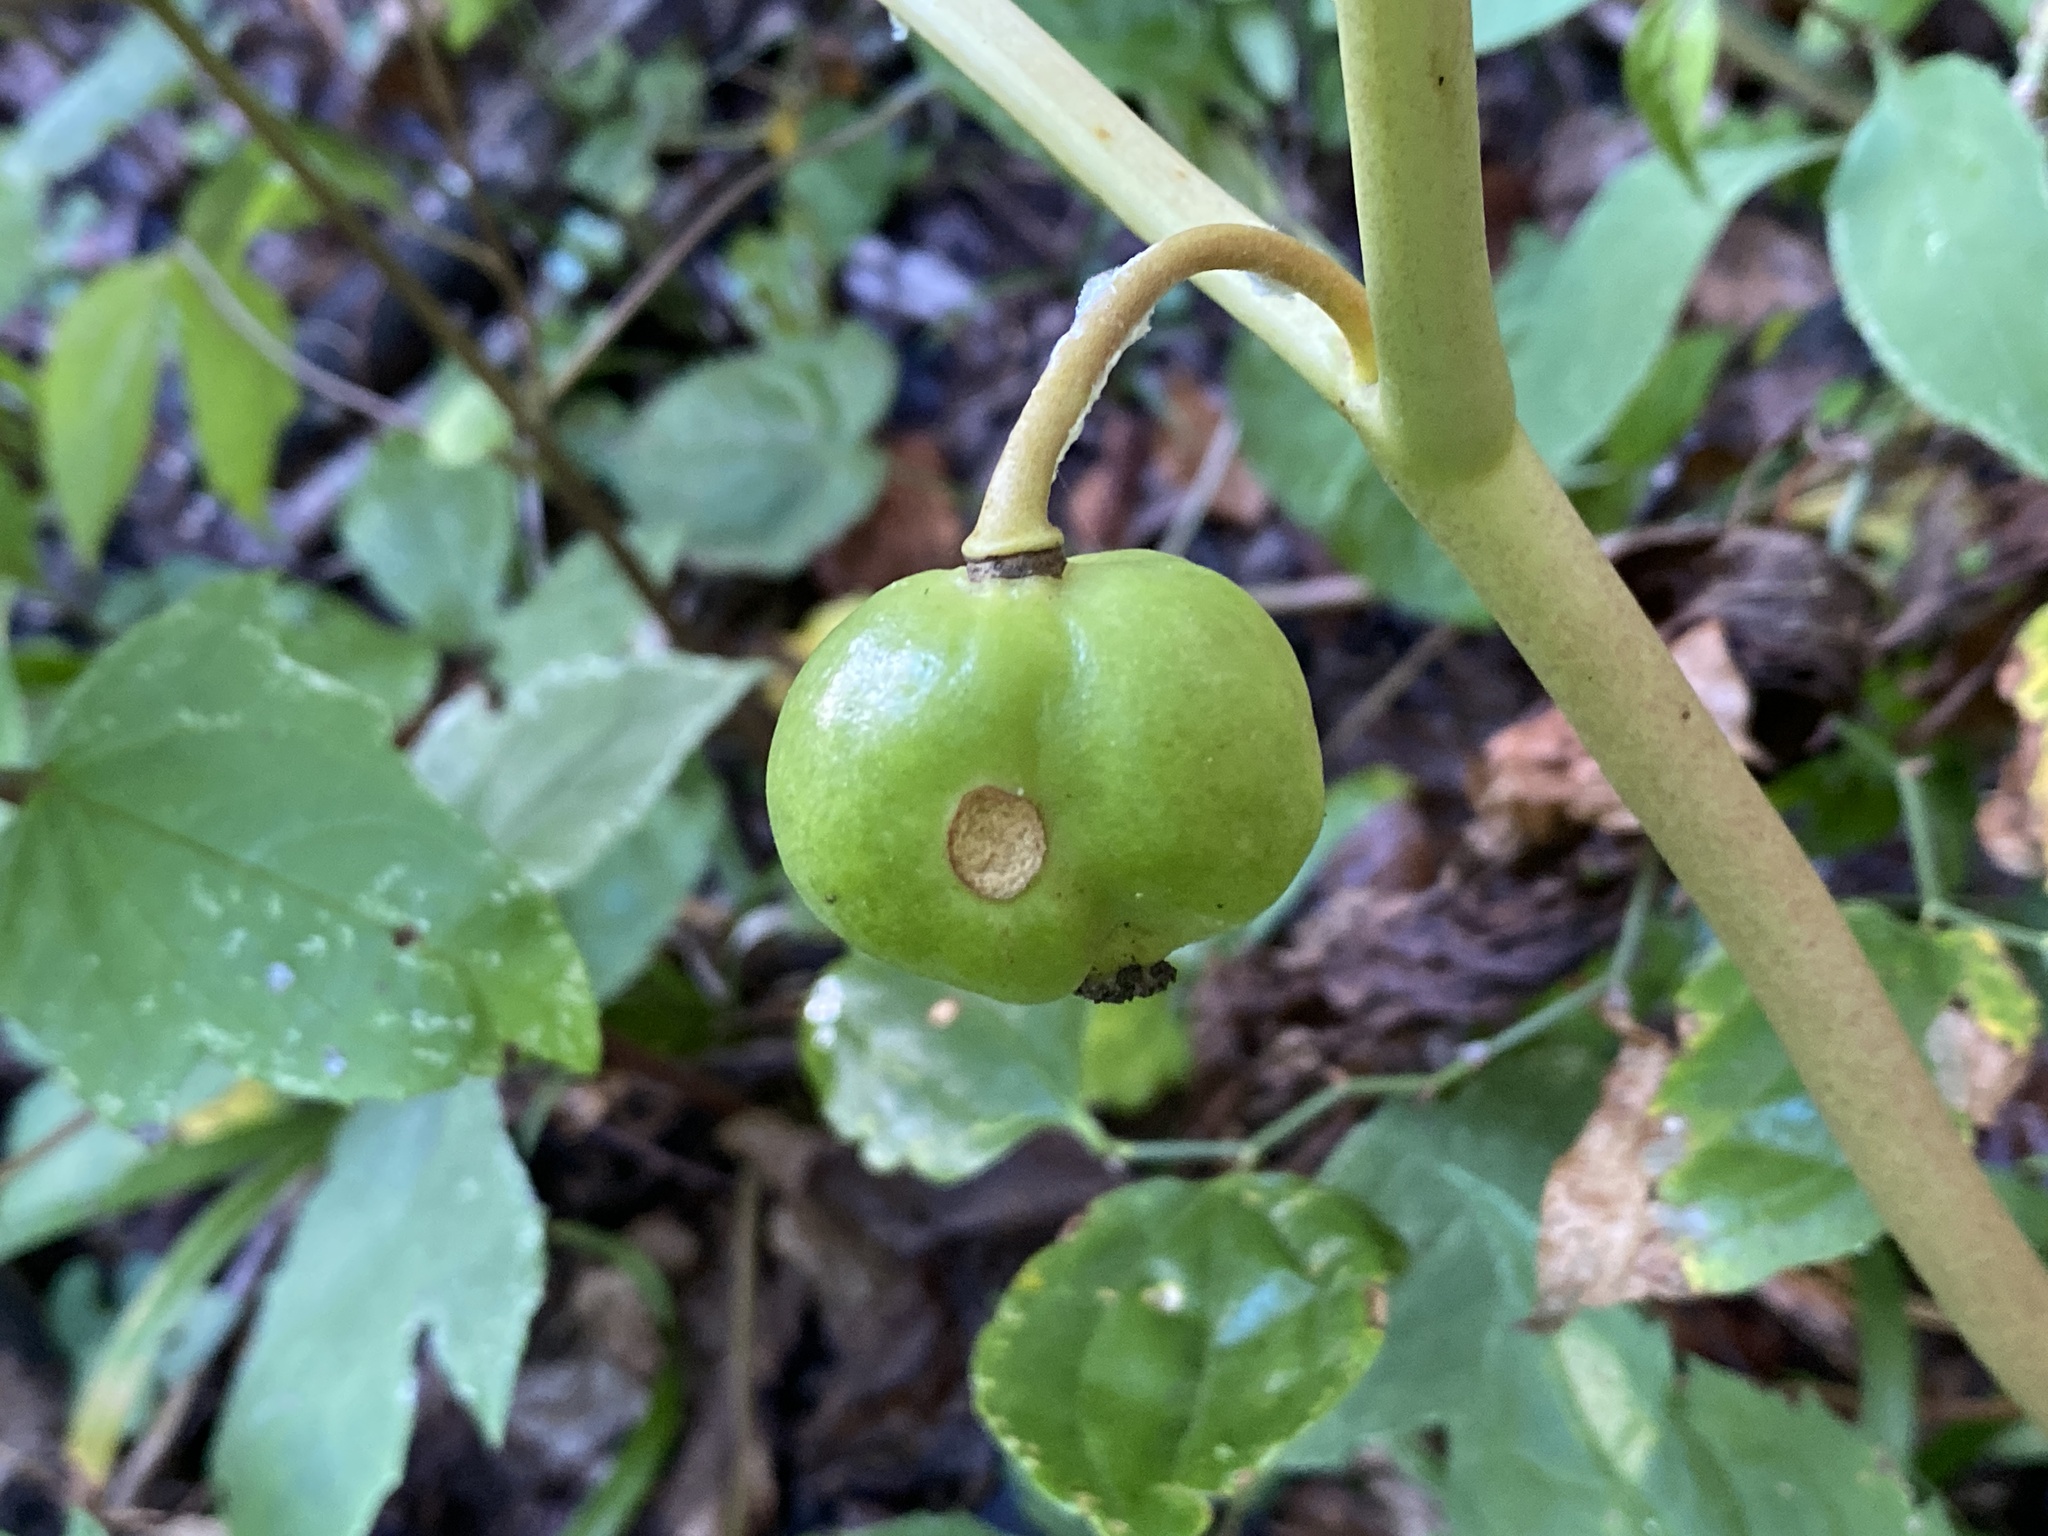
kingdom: Plantae
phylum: Tracheophyta
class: Magnoliopsida
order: Ranunculales
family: Berberidaceae
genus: Podophyllum
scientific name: Podophyllum peltatum
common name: Wild mandrake
